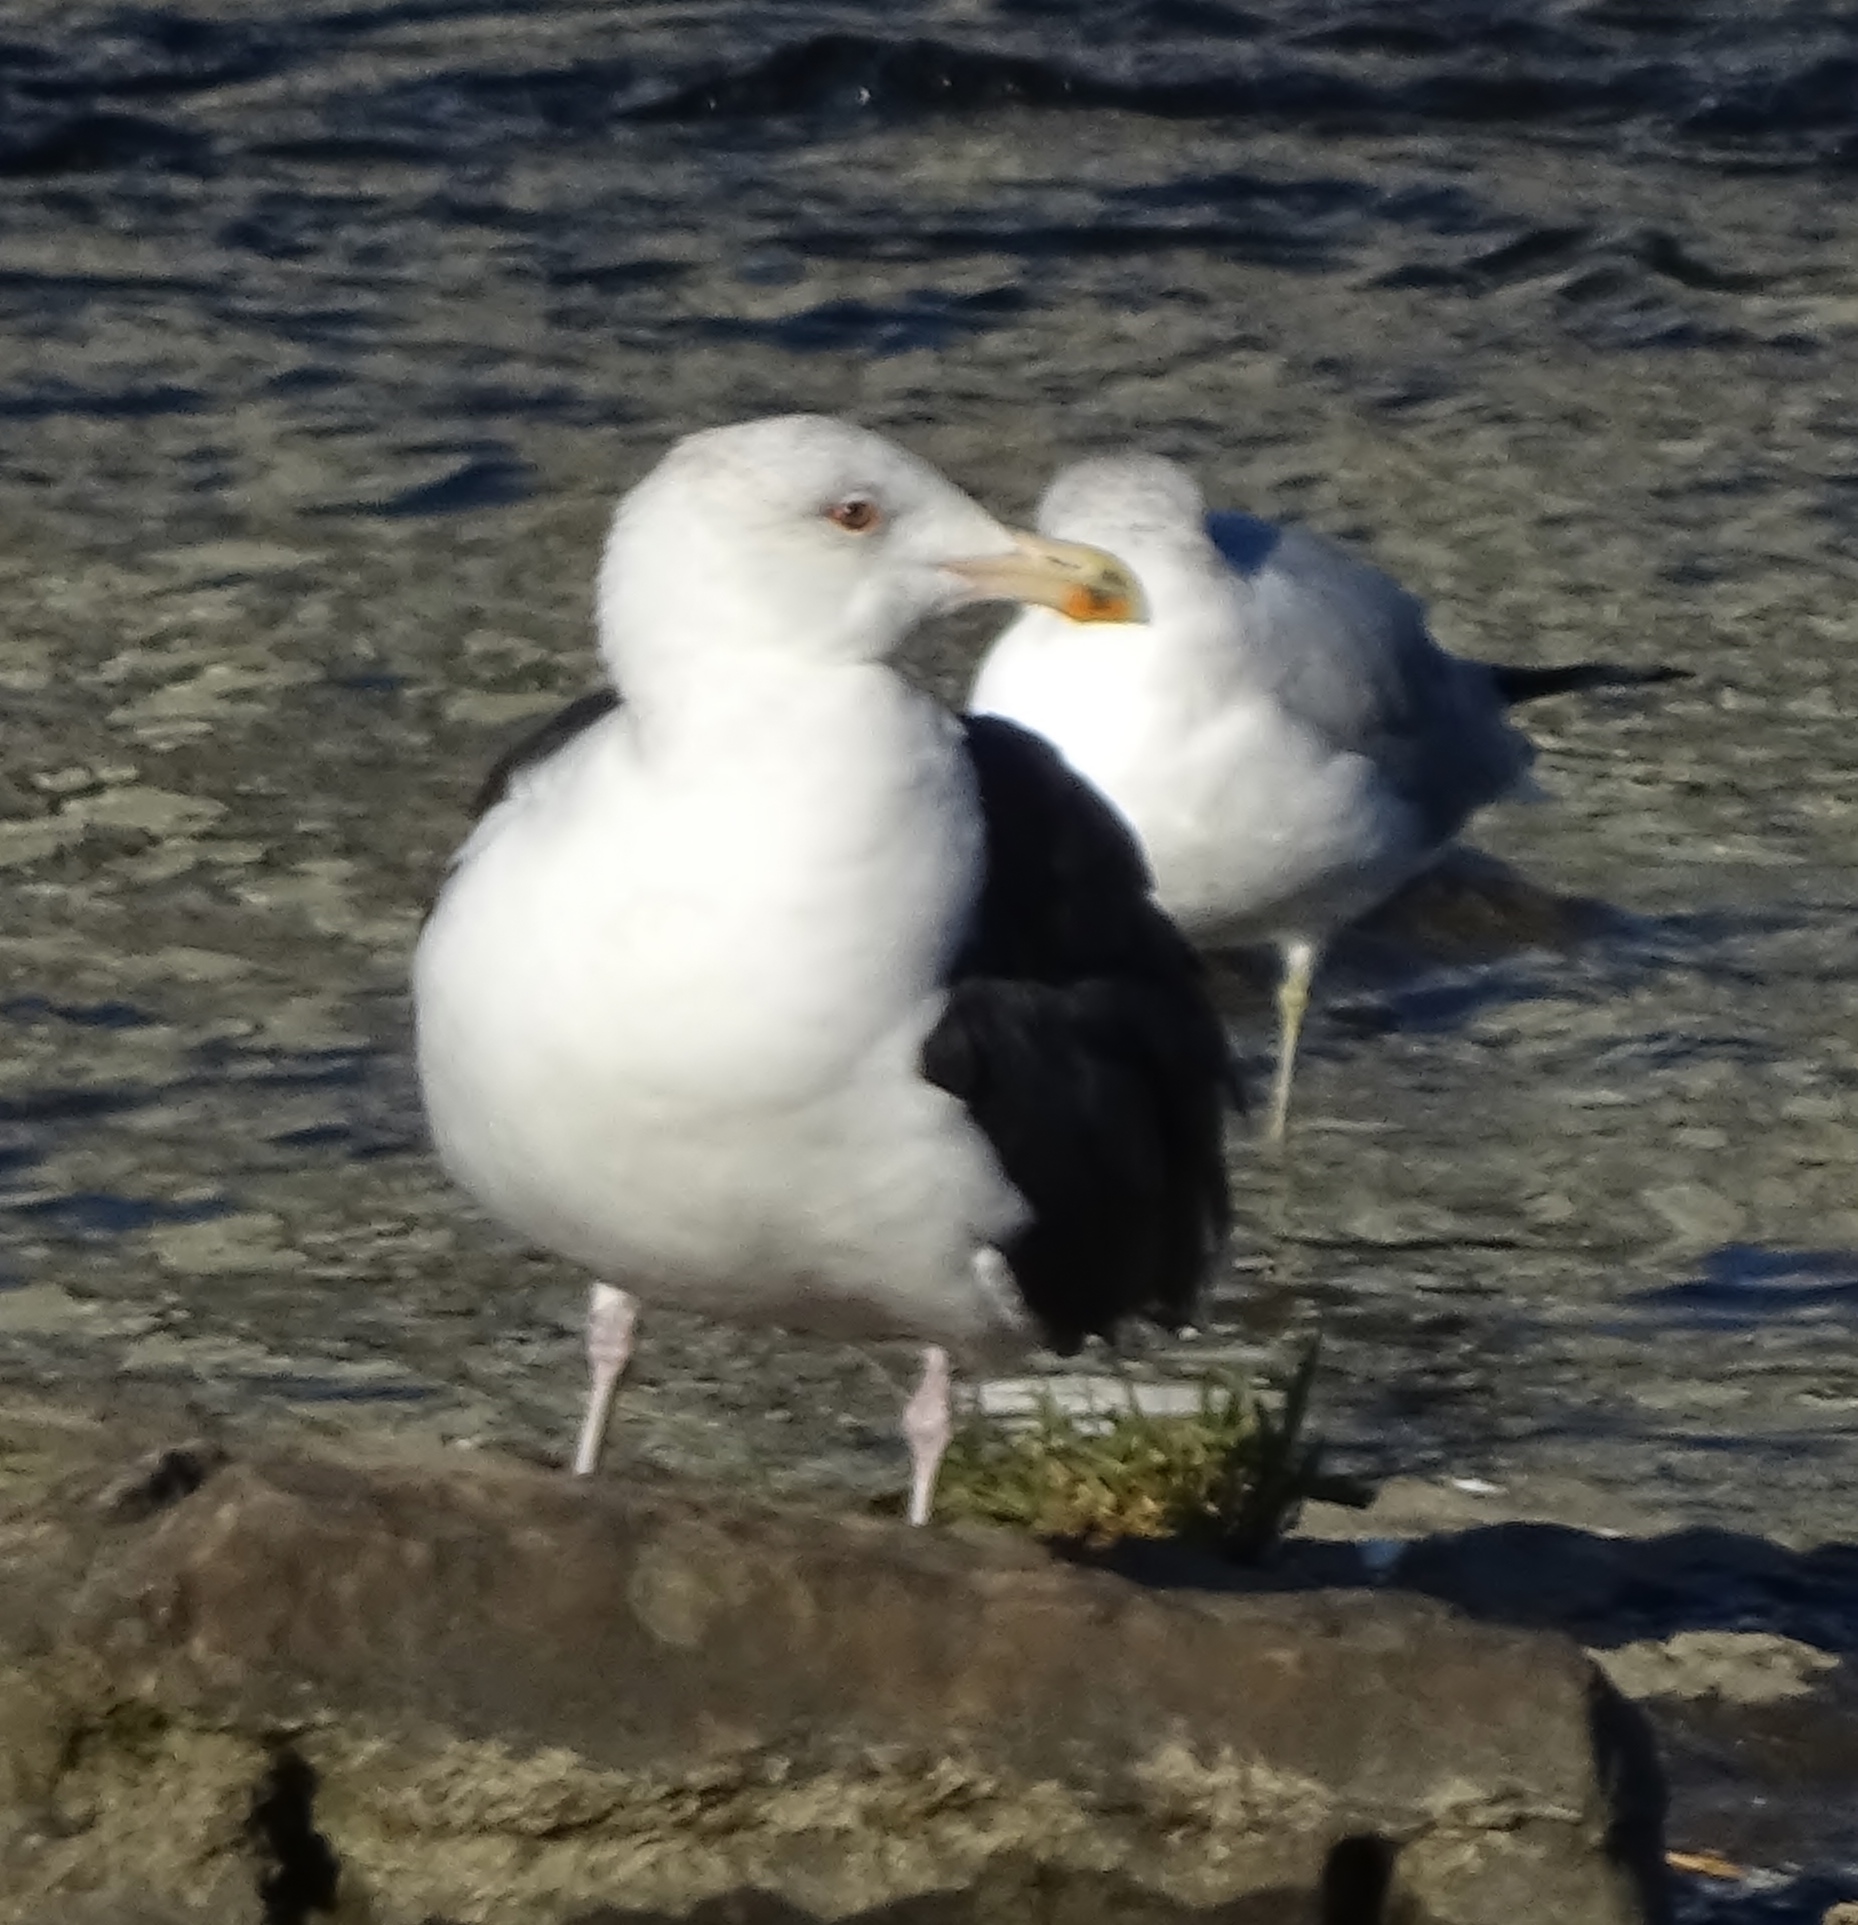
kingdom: Animalia
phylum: Chordata
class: Aves
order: Charadriiformes
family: Laridae
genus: Larus
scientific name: Larus marinus
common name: Great black-backed gull
